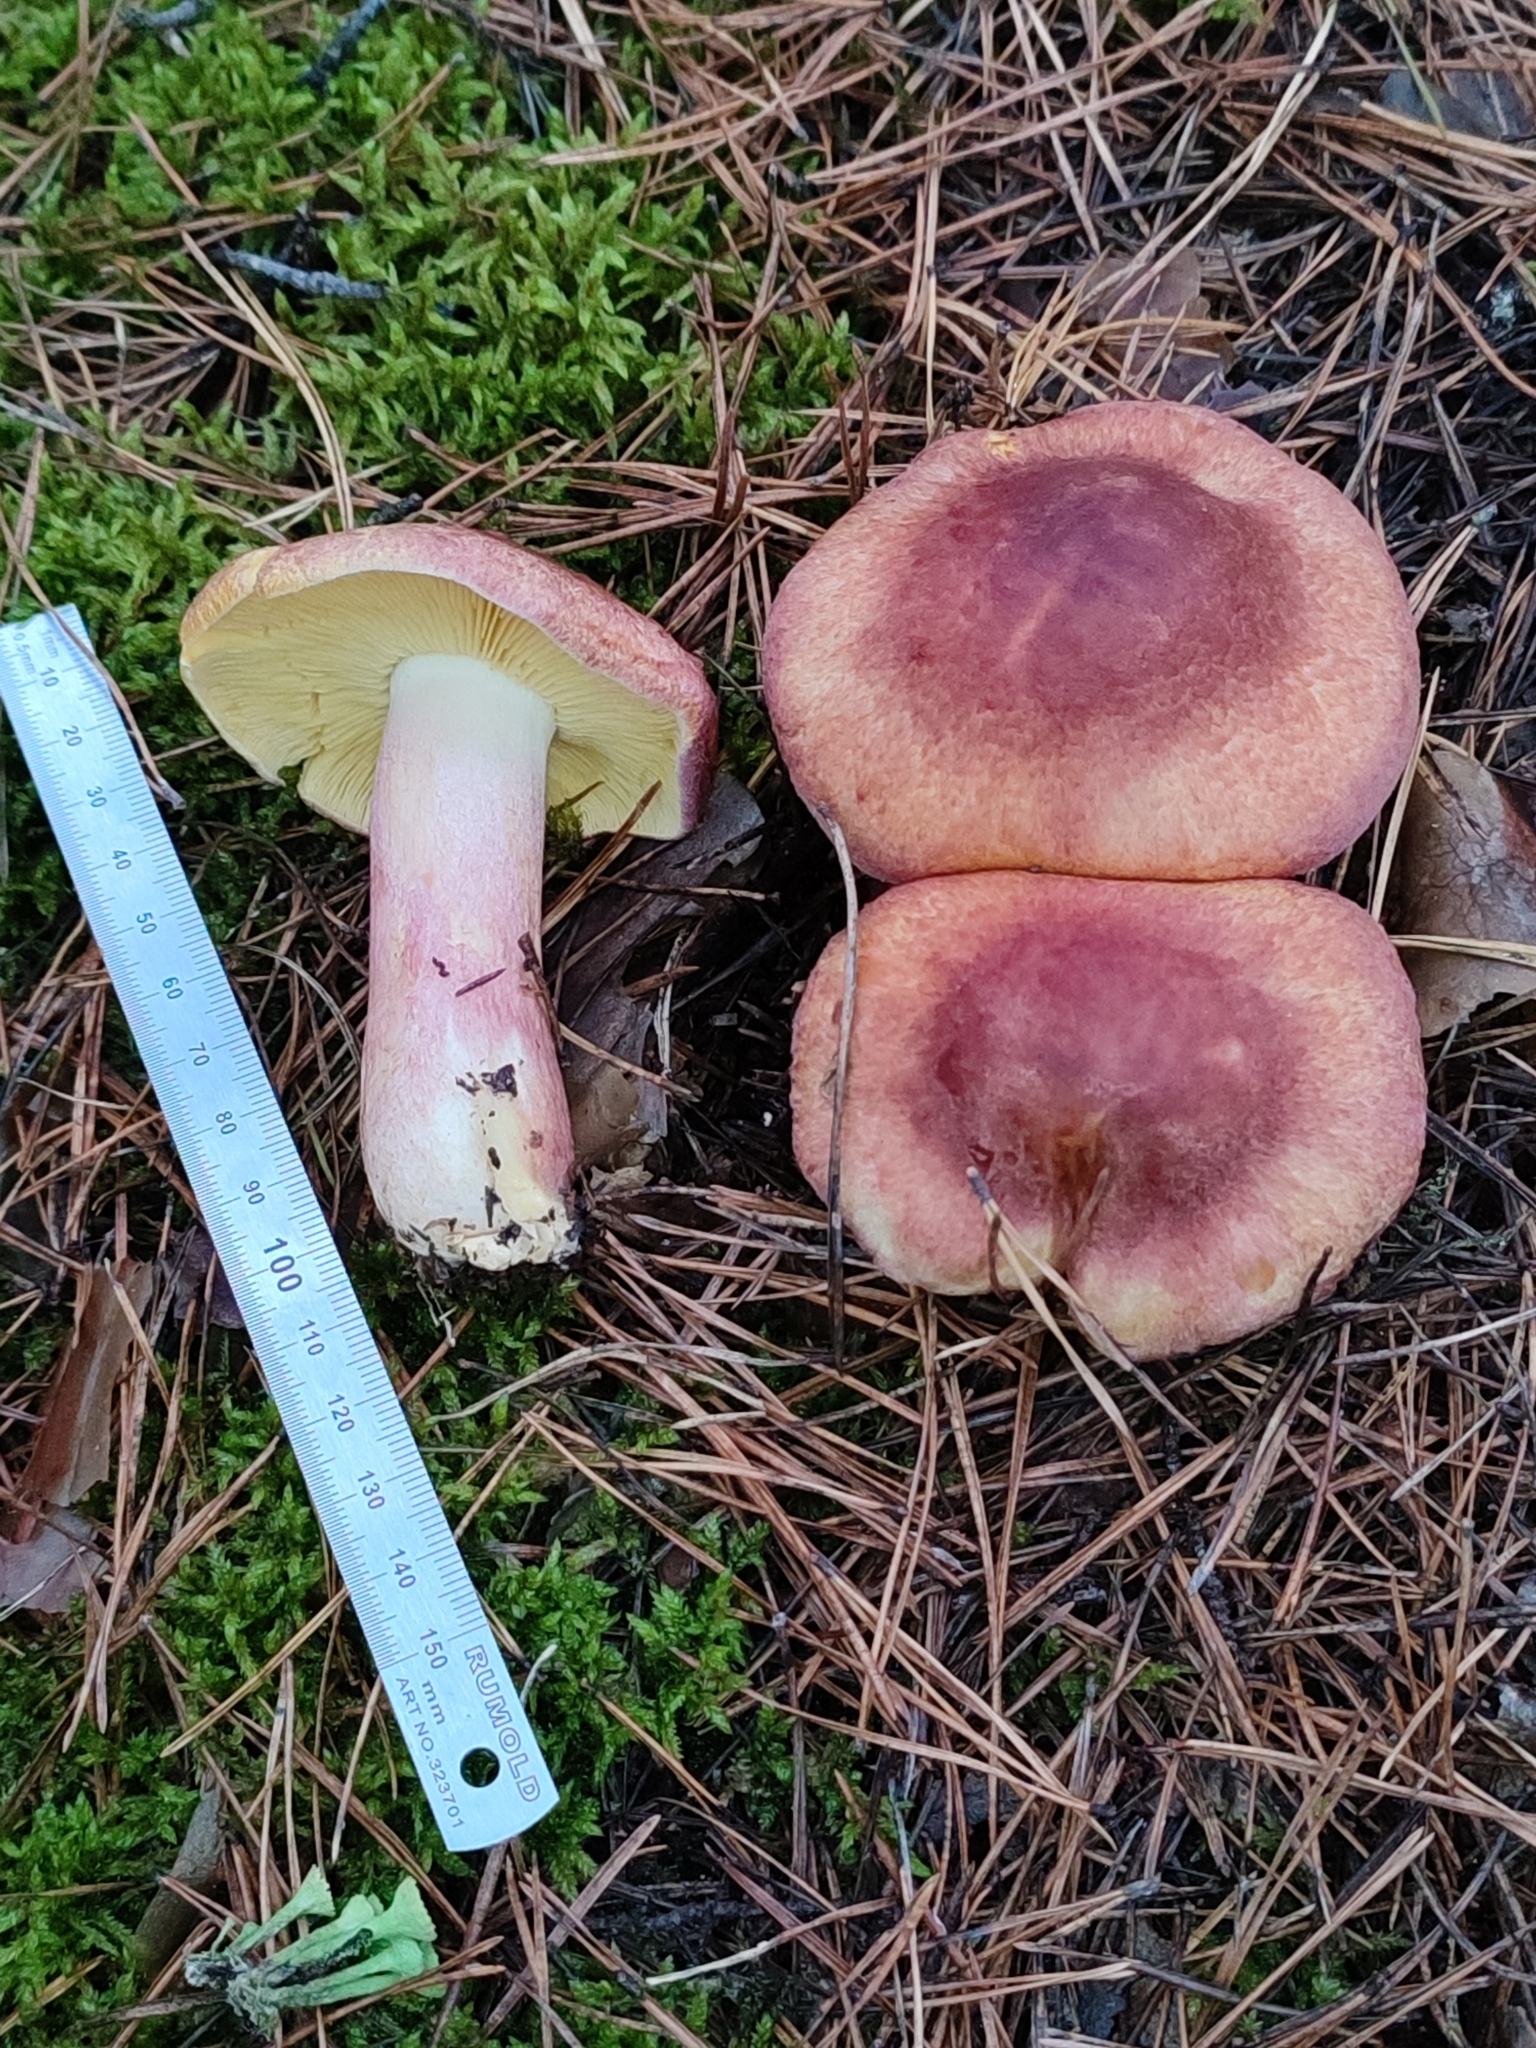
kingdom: Fungi
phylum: Basidiomycota
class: Agaricomycetes
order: Agaricales
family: Tricholomataceae
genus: Tricholomopsis
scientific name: Tricholomopsis rutilans
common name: Plums and custard
